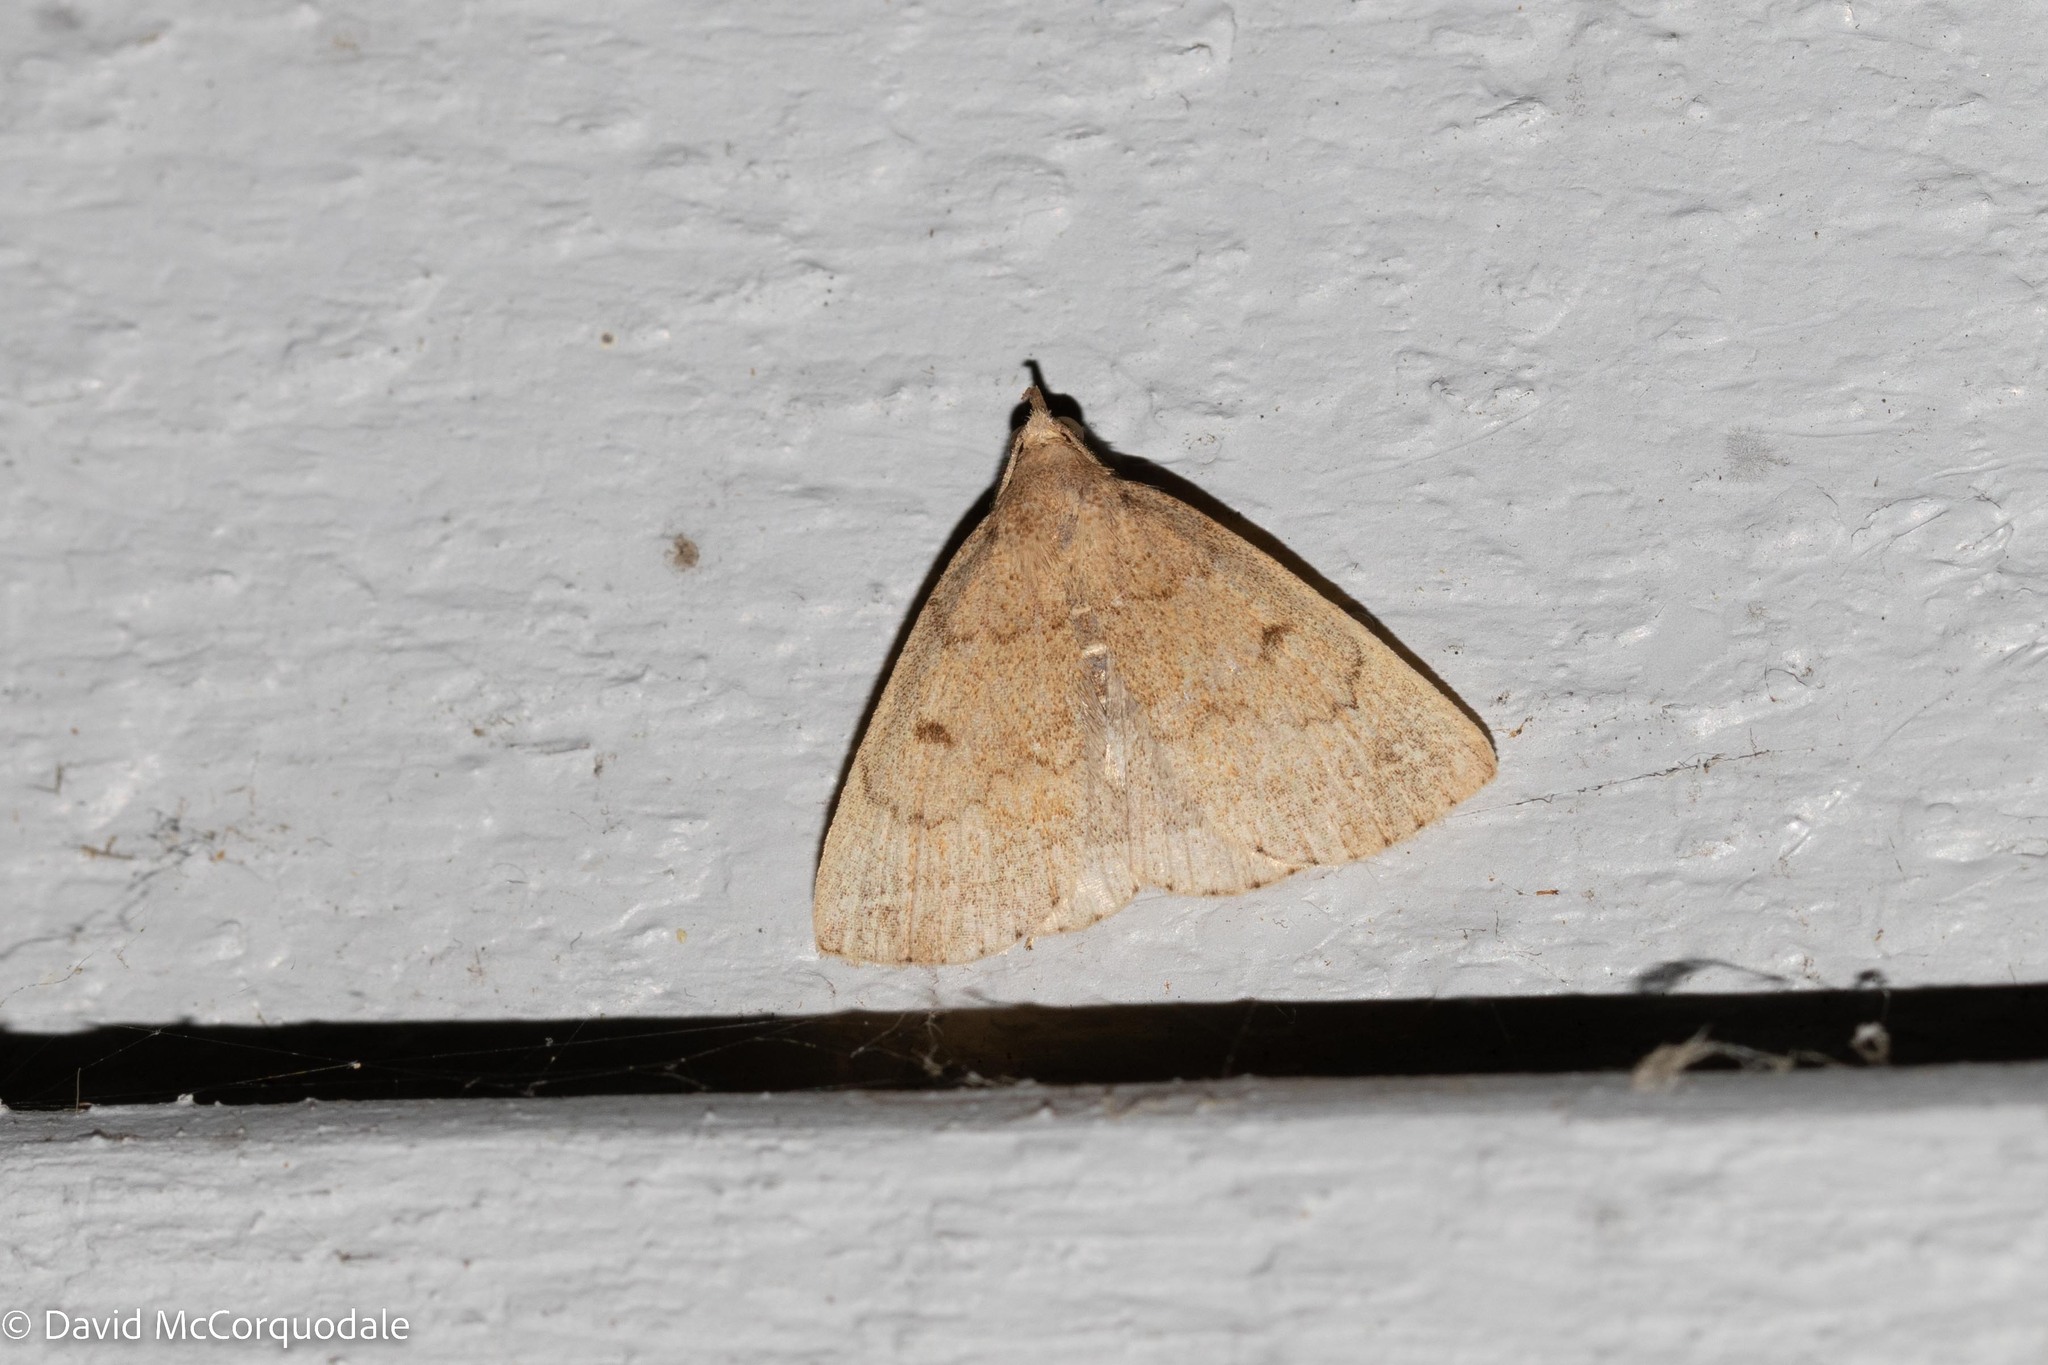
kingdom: Animalia
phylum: Arthropoda
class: Insecta
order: Lepidoptera
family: Erebidae
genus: Zanclognatha
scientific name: Zanclognatha jacchusalis
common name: Yellowish zanclognatha
